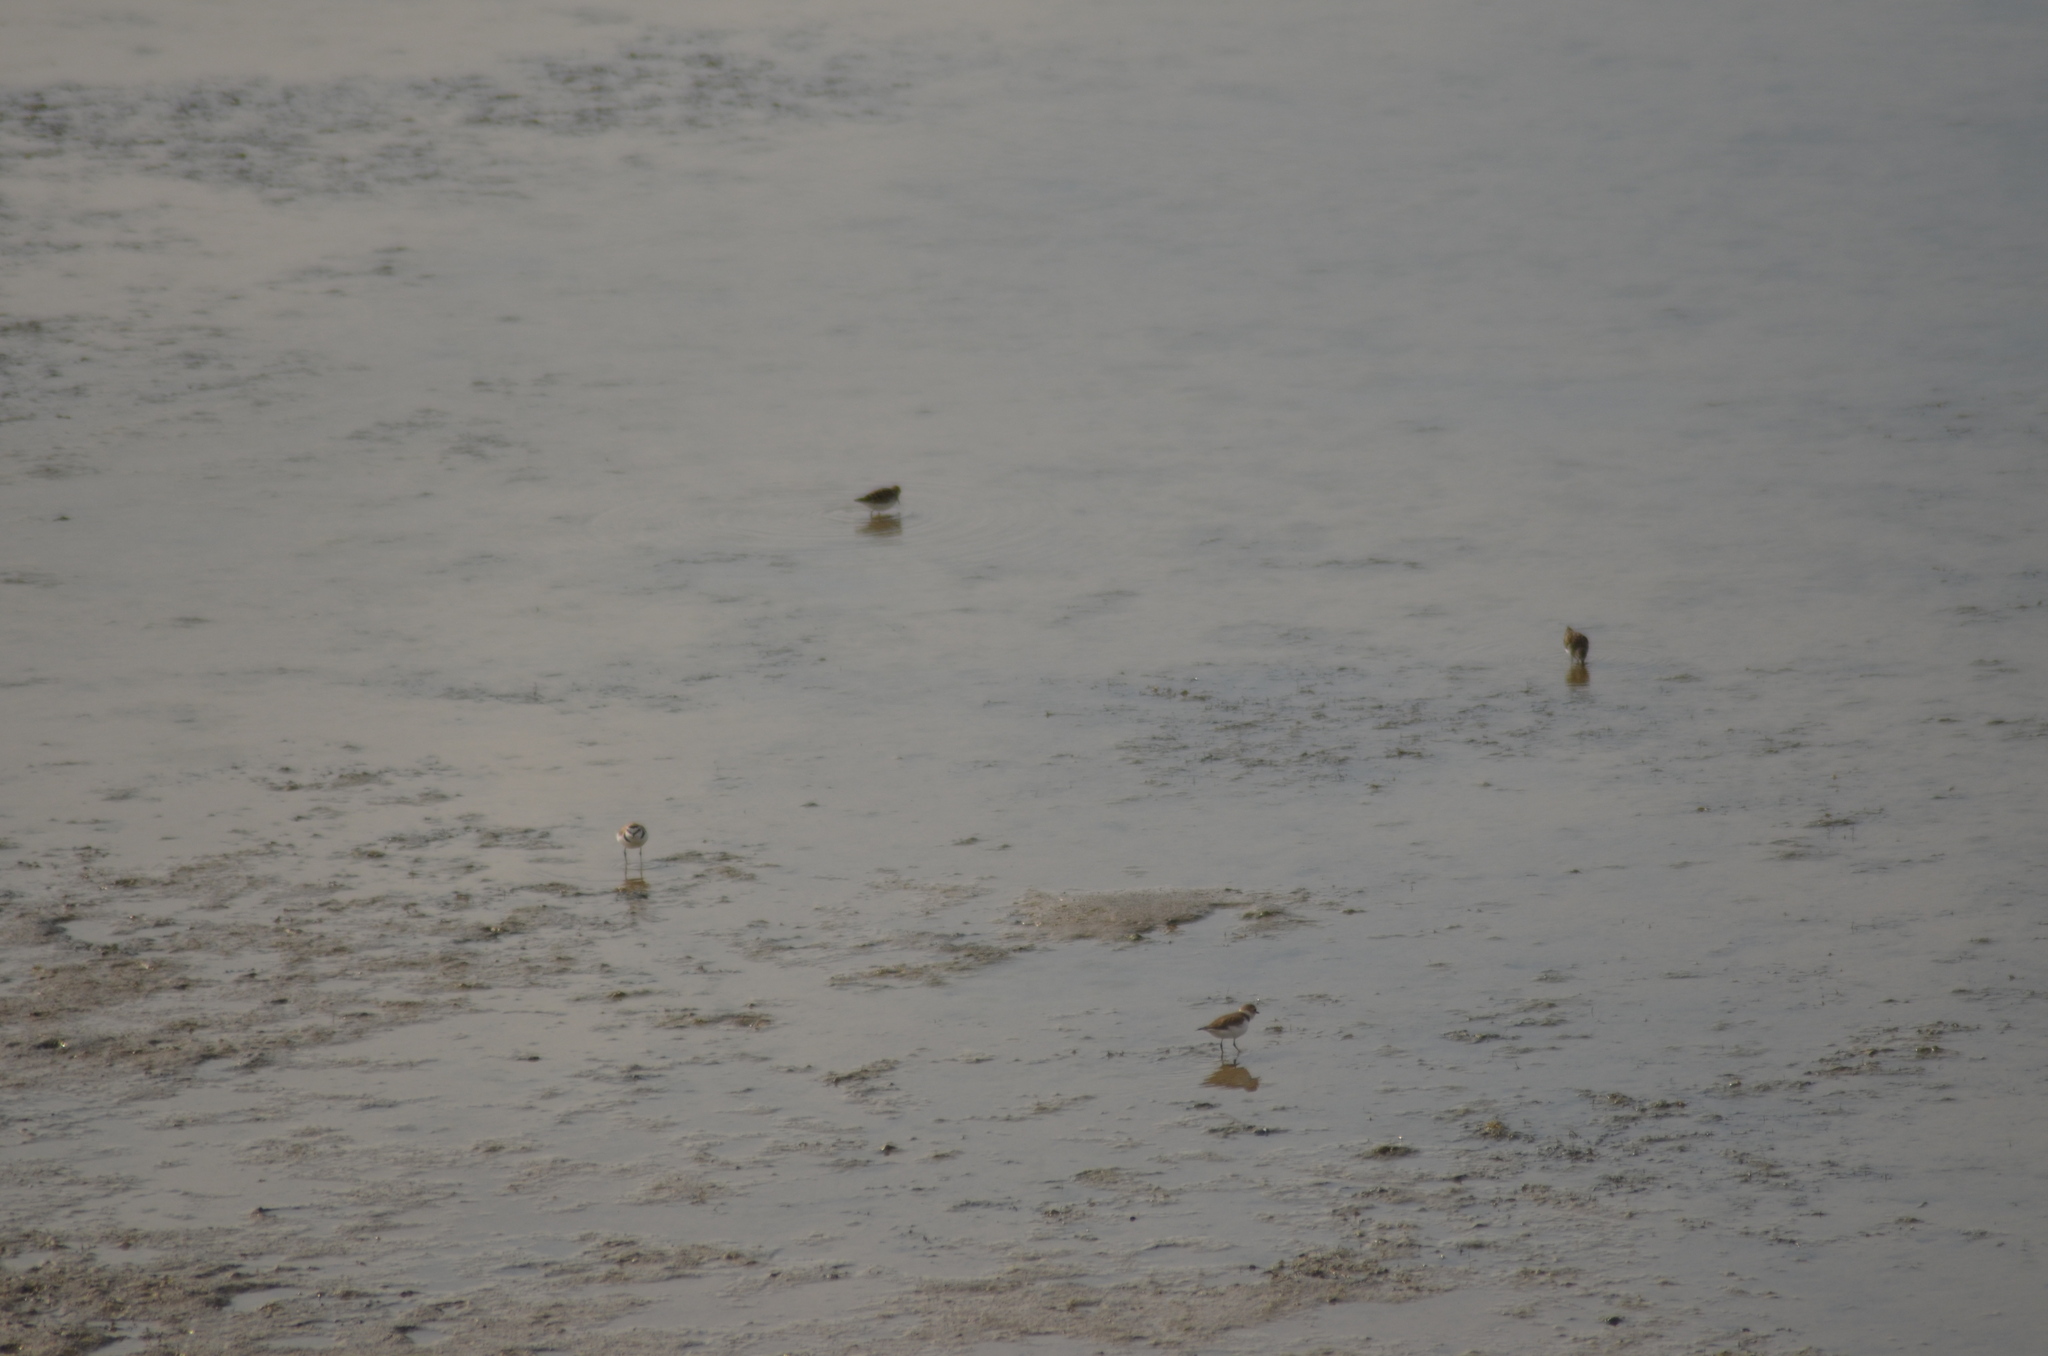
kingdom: Animalia
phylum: Chordata
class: Aves
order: Charadriiformes
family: Scolopacidae
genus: Calidris
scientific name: Calidris minuta
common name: Little stint
